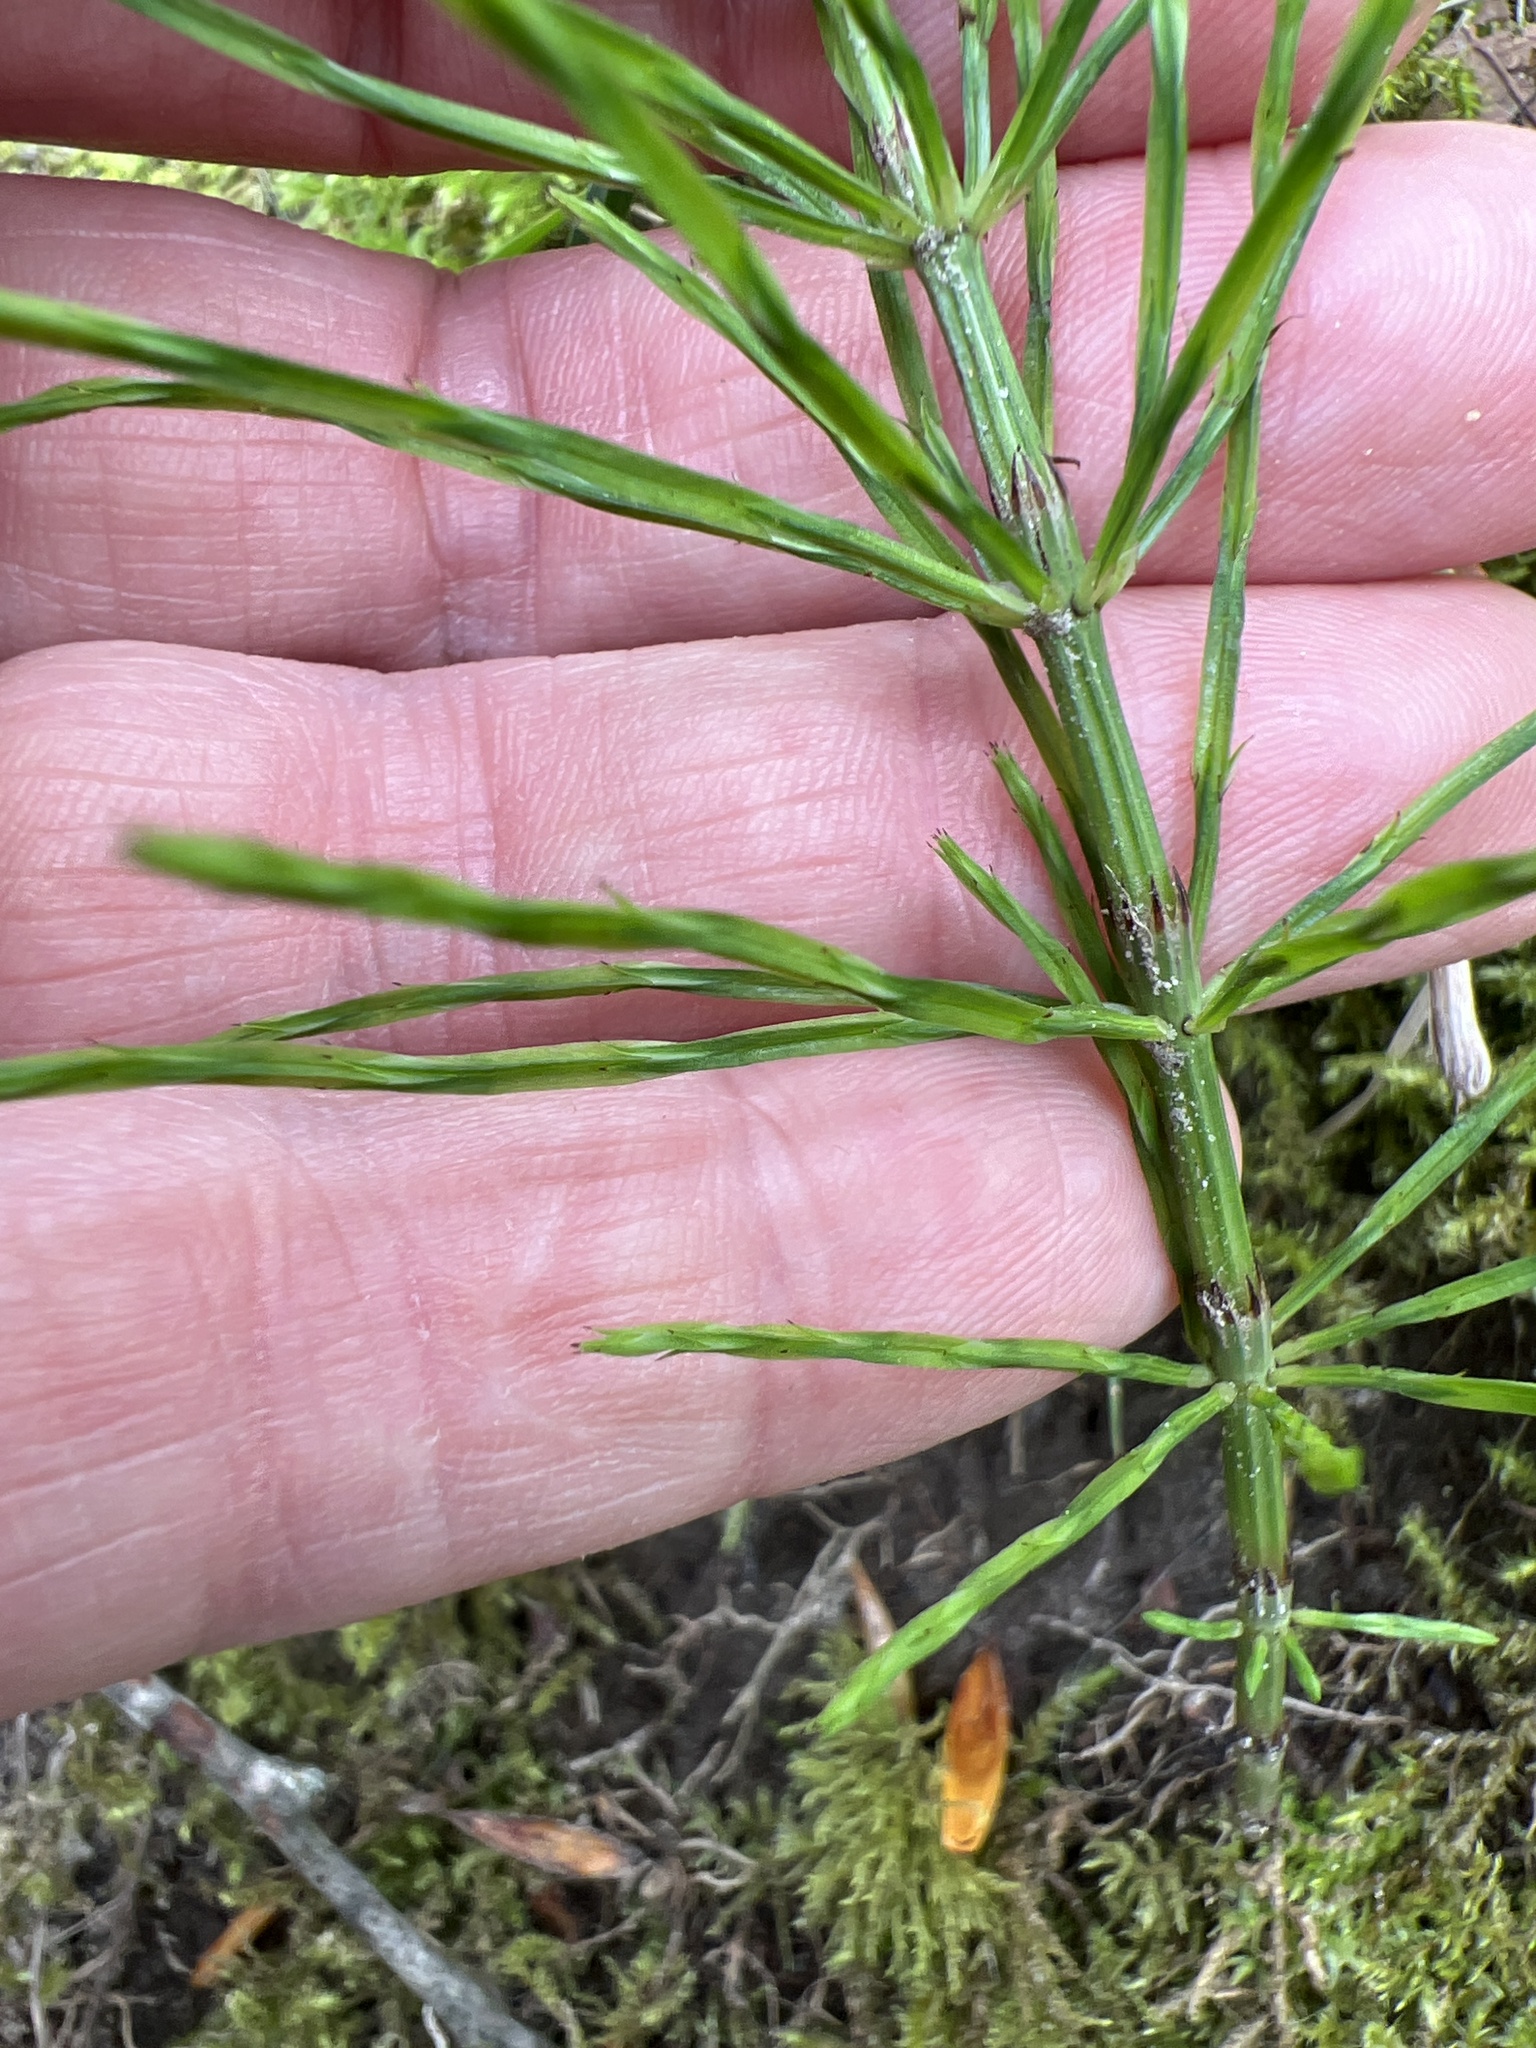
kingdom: Plantae
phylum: Tracheophyta
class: Polypodiopsida
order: Equisetales
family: Equisetaceae
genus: Equisetum
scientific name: Equisetum arvense
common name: Field horsetail
